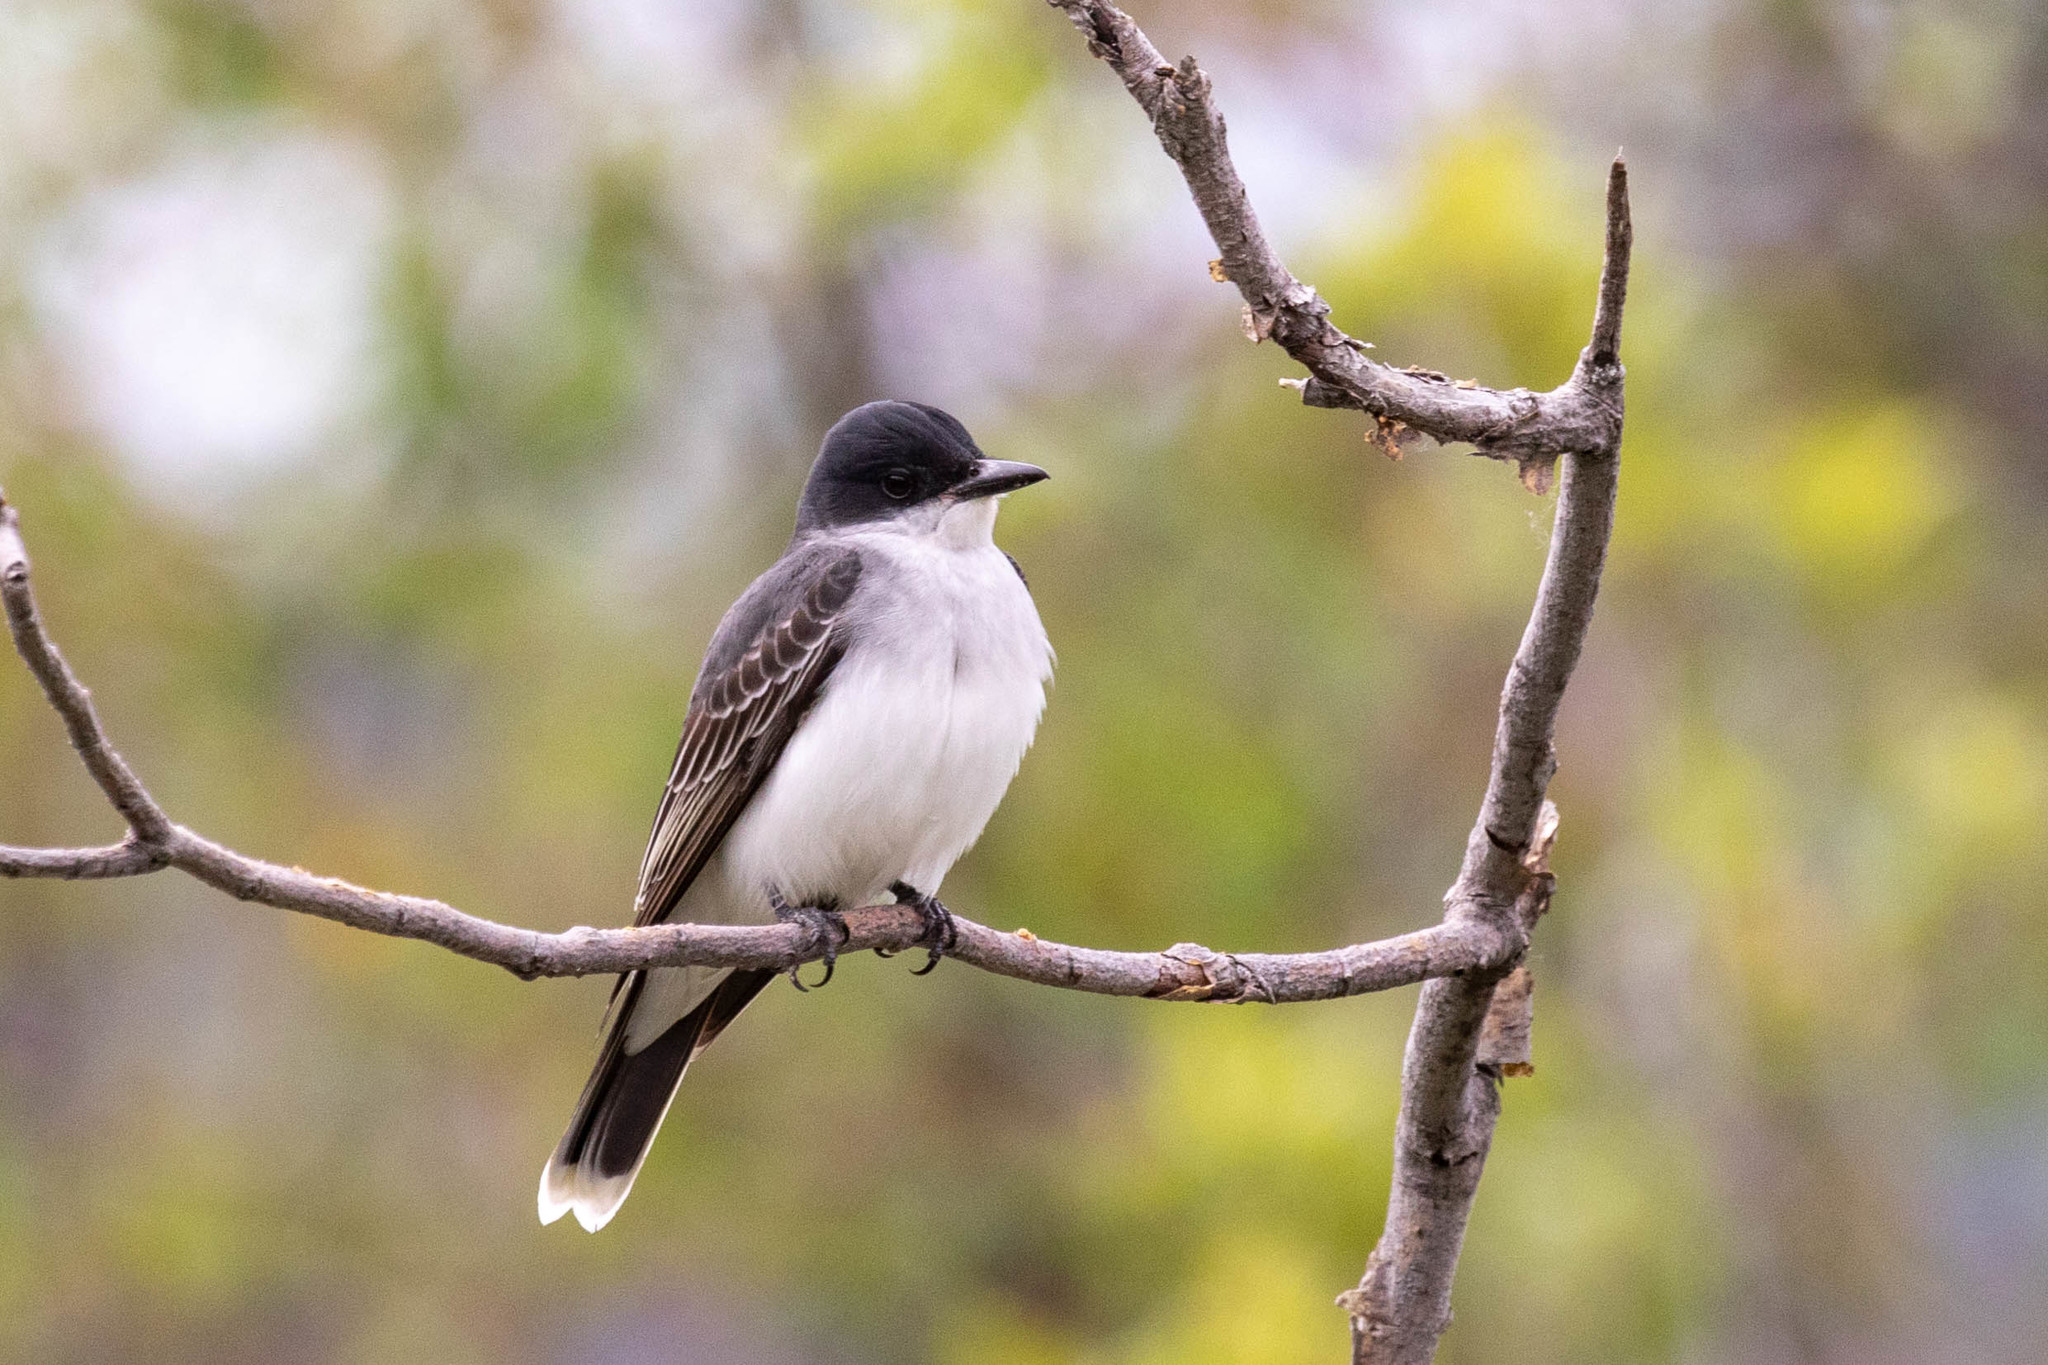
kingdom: Animalia
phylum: Chordata
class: Aves
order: Passeriformes
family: Tyrannidae
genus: Tyrannus
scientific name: Tyrannus tyrannus
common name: Eastern kingbird
